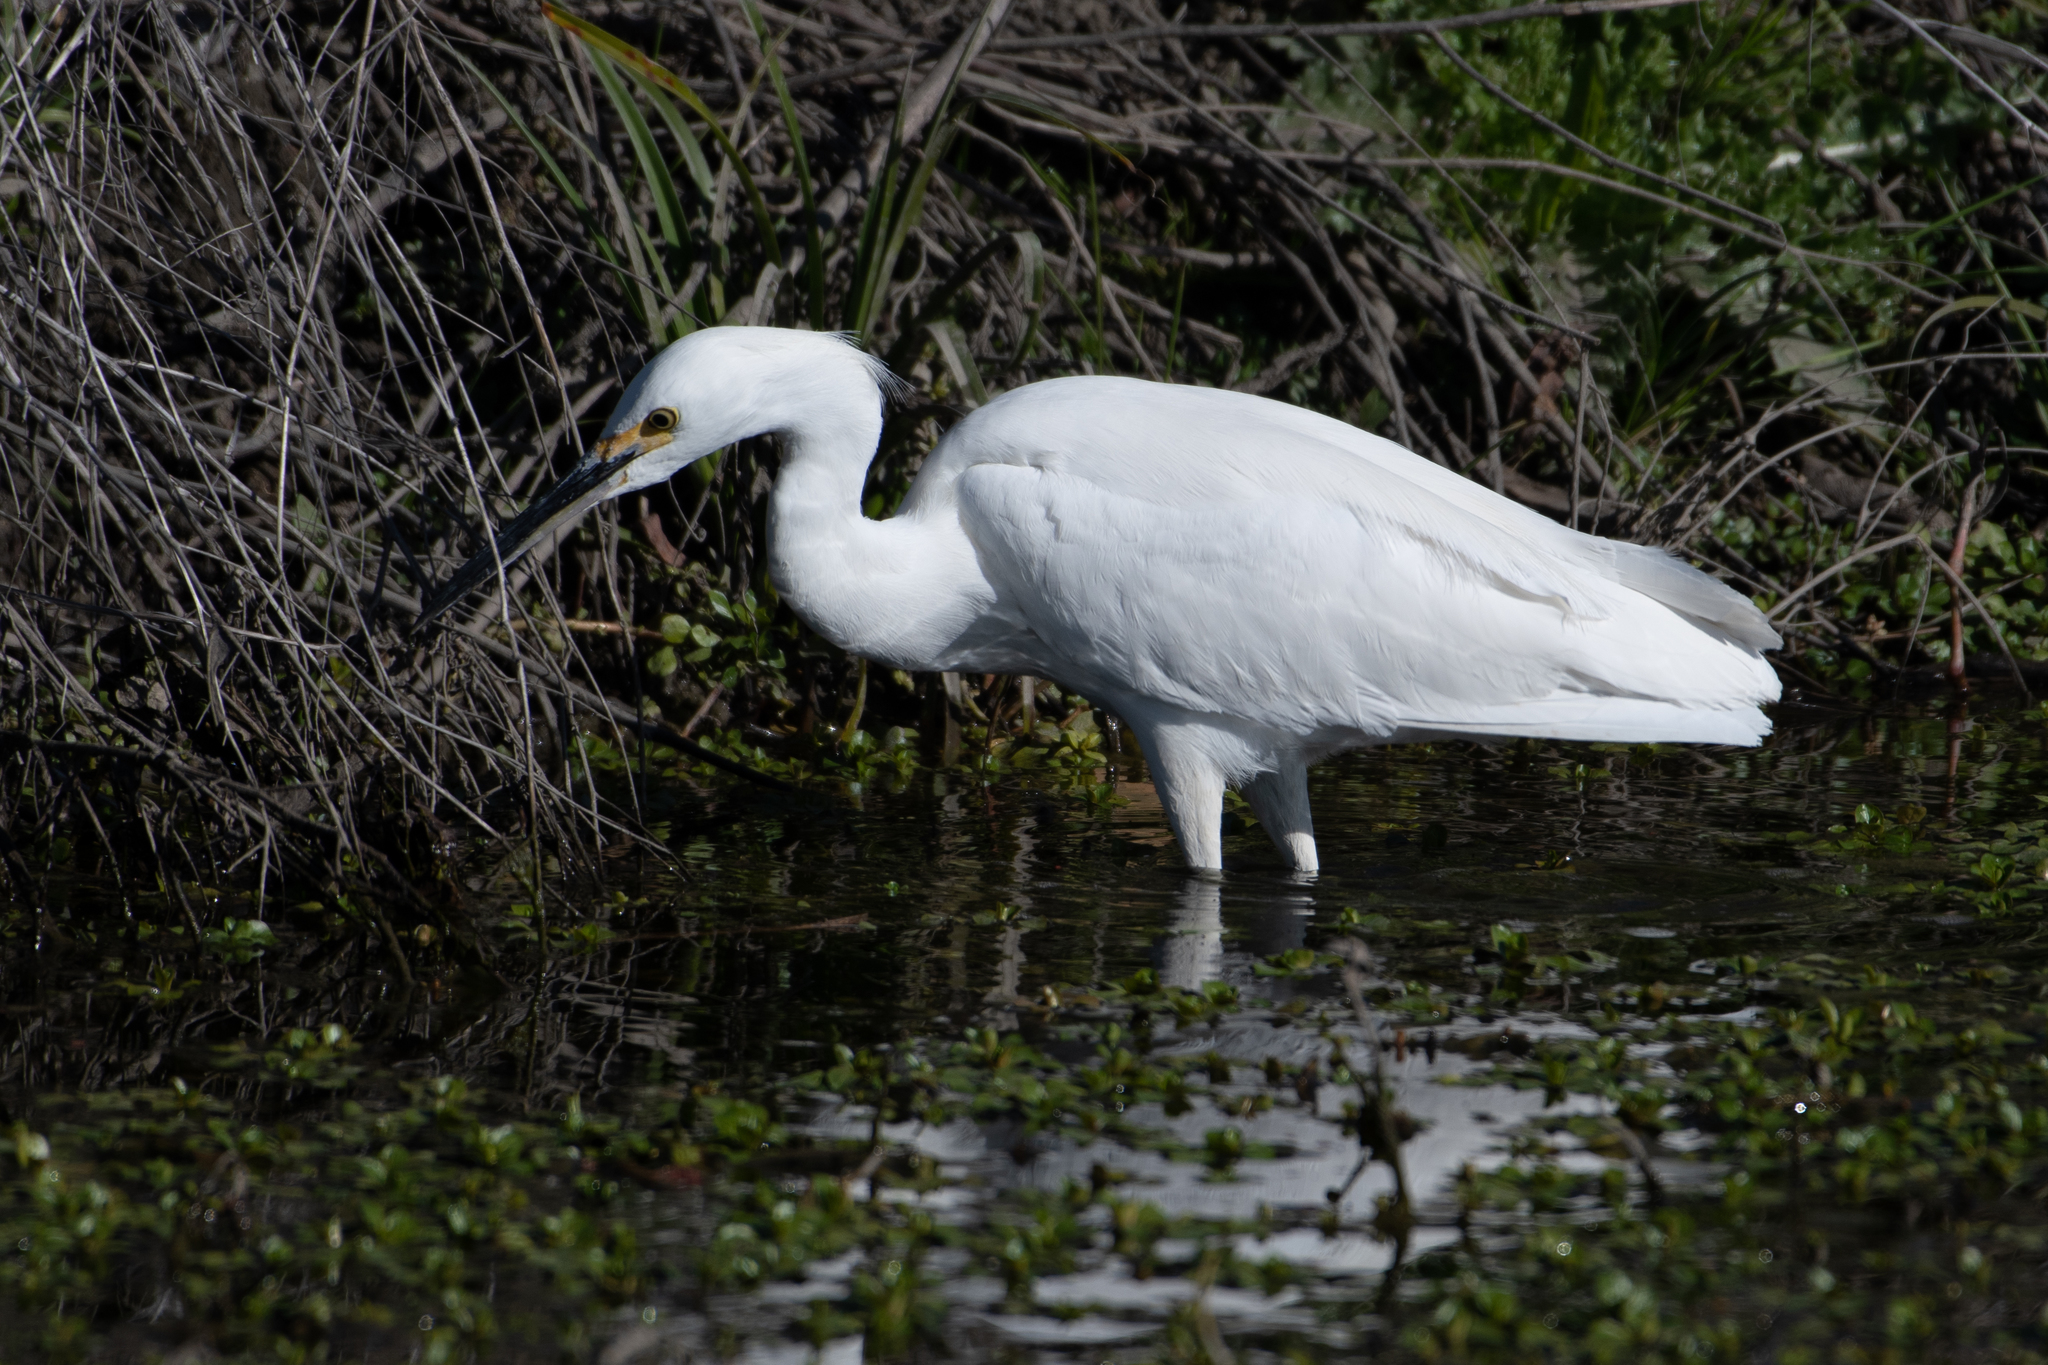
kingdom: Animalia
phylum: Chordata
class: Aves
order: Pelecaniformes
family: Ardeidae
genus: Egretta
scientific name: Egretta thula
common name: Snowy egret
